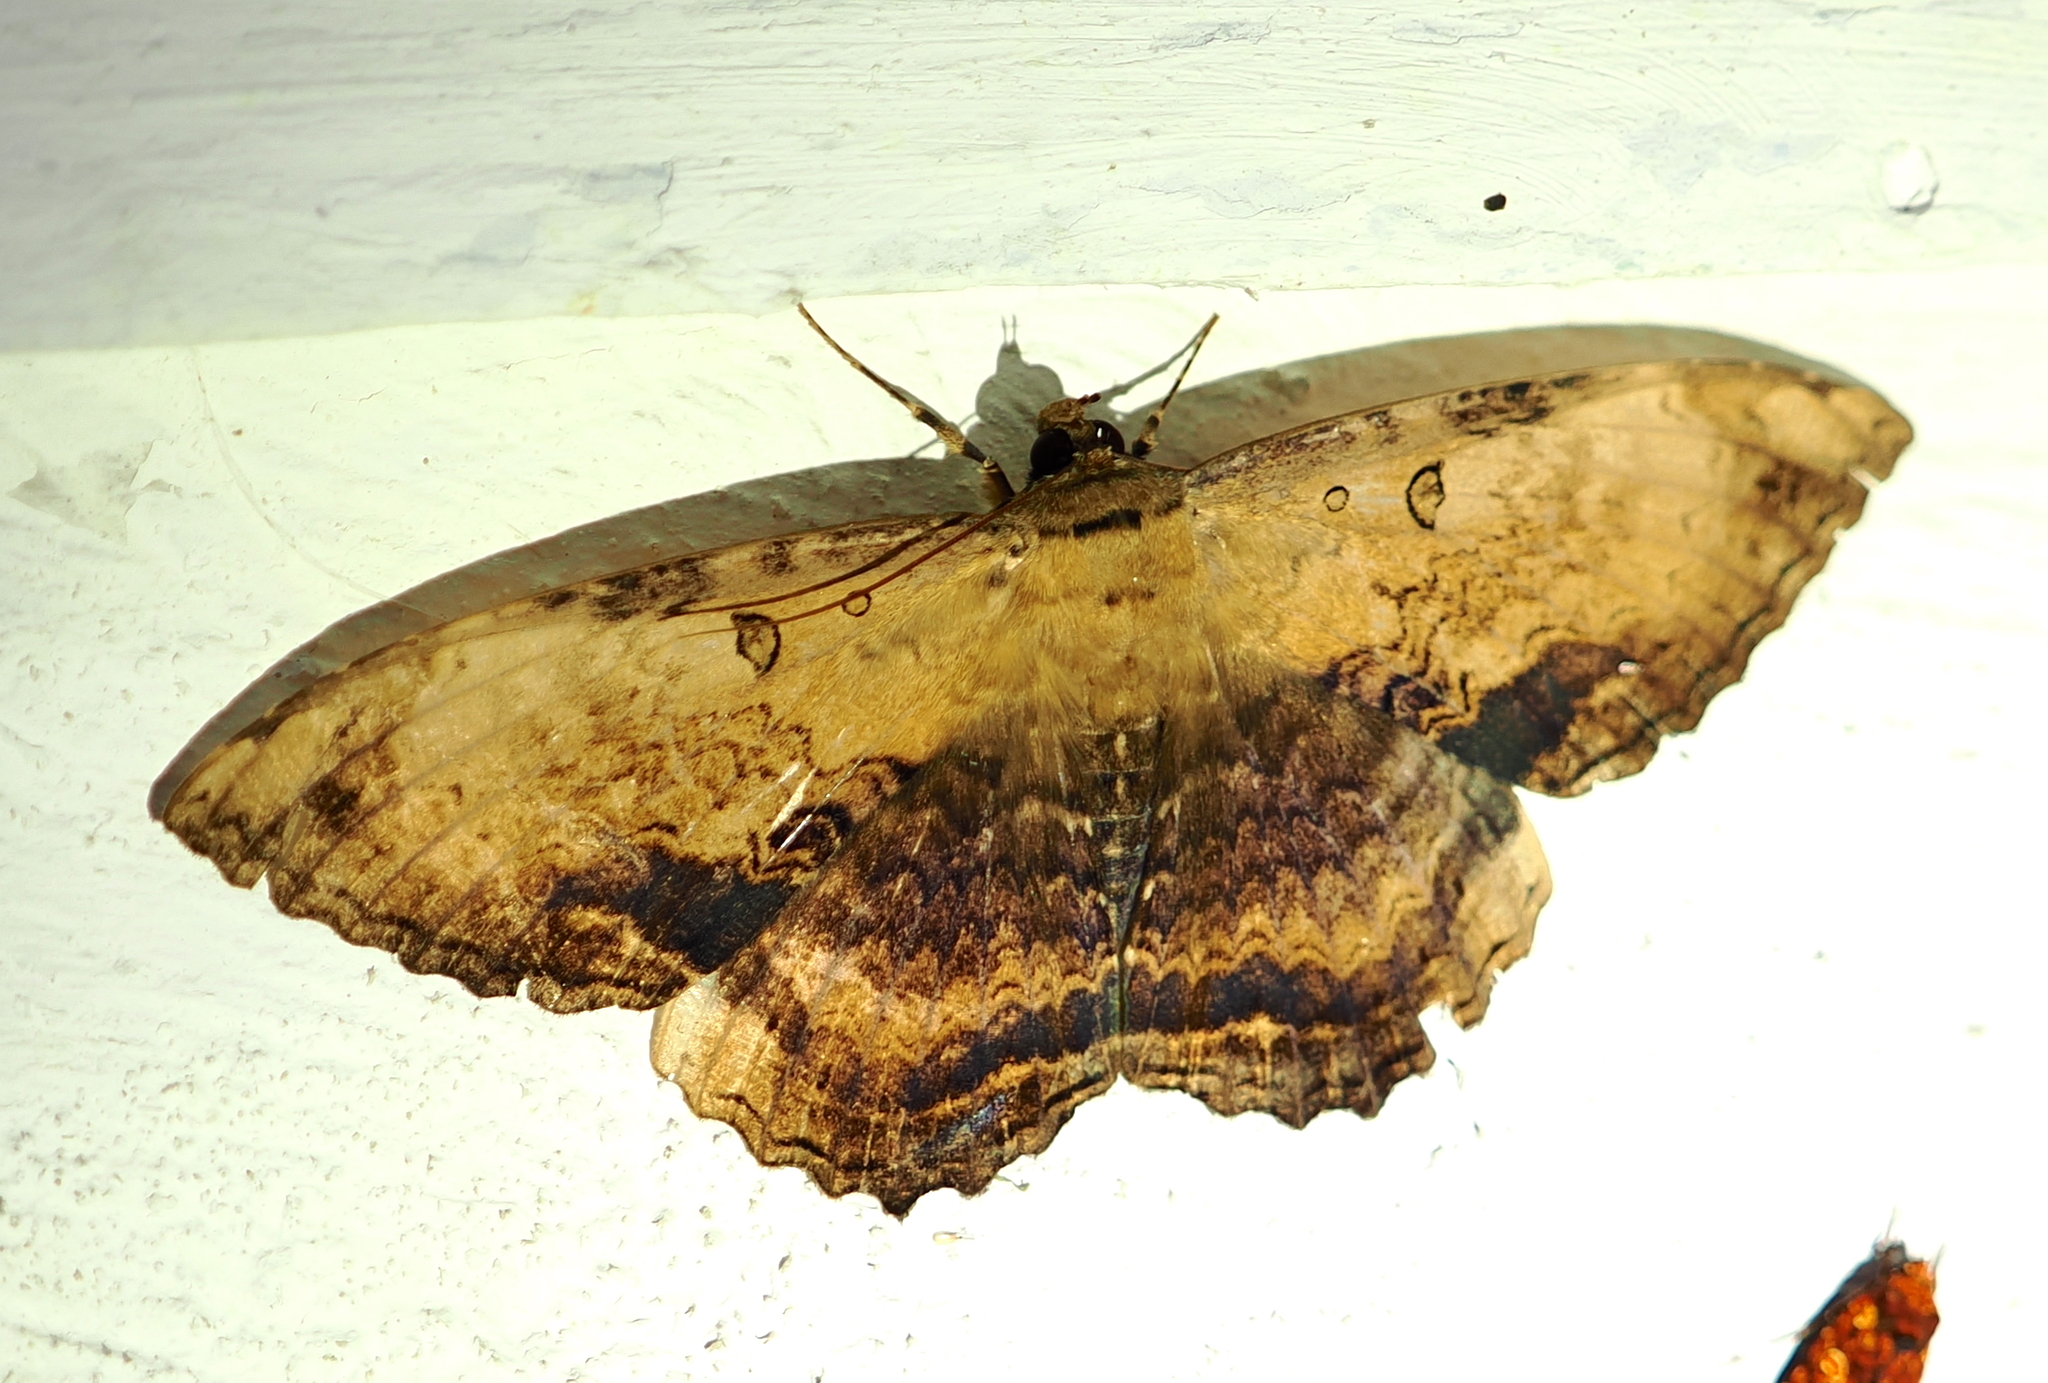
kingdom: Animalia
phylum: Arthropoda
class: Insecta
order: Lepidoptera
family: Erebidae
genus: Feigeria
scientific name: Feigeria
